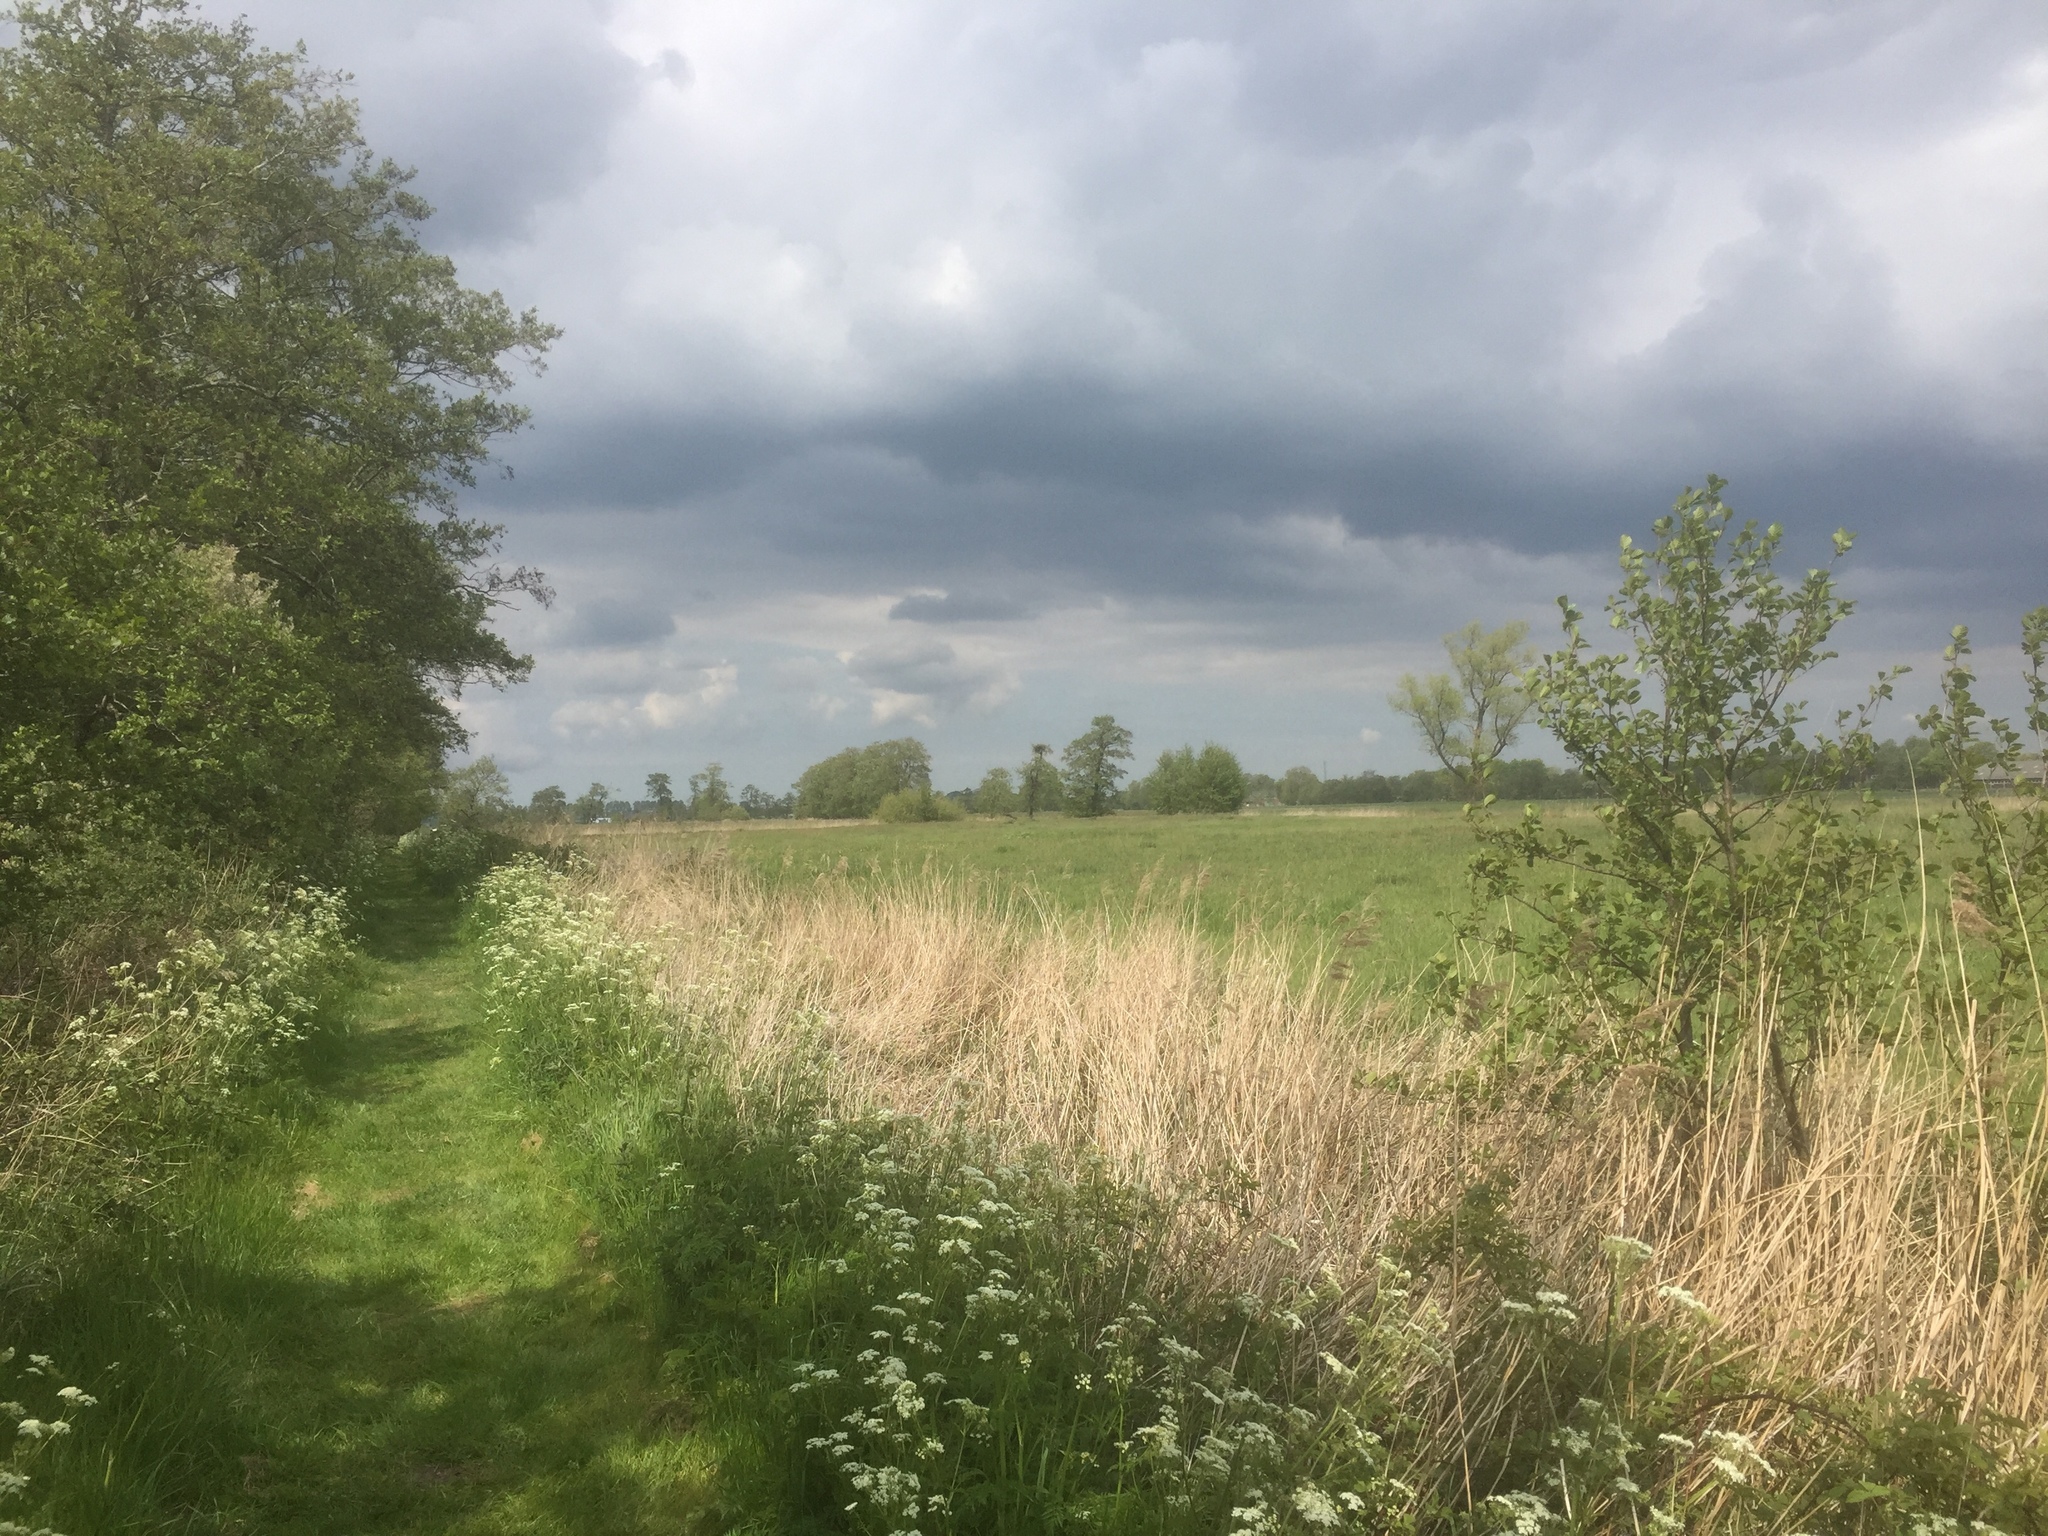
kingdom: Plantae
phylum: Tracheophyta
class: Liliopsida
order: Poales
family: Poaceae
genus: Phragmites
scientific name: Phragmites australis
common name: Common reed
